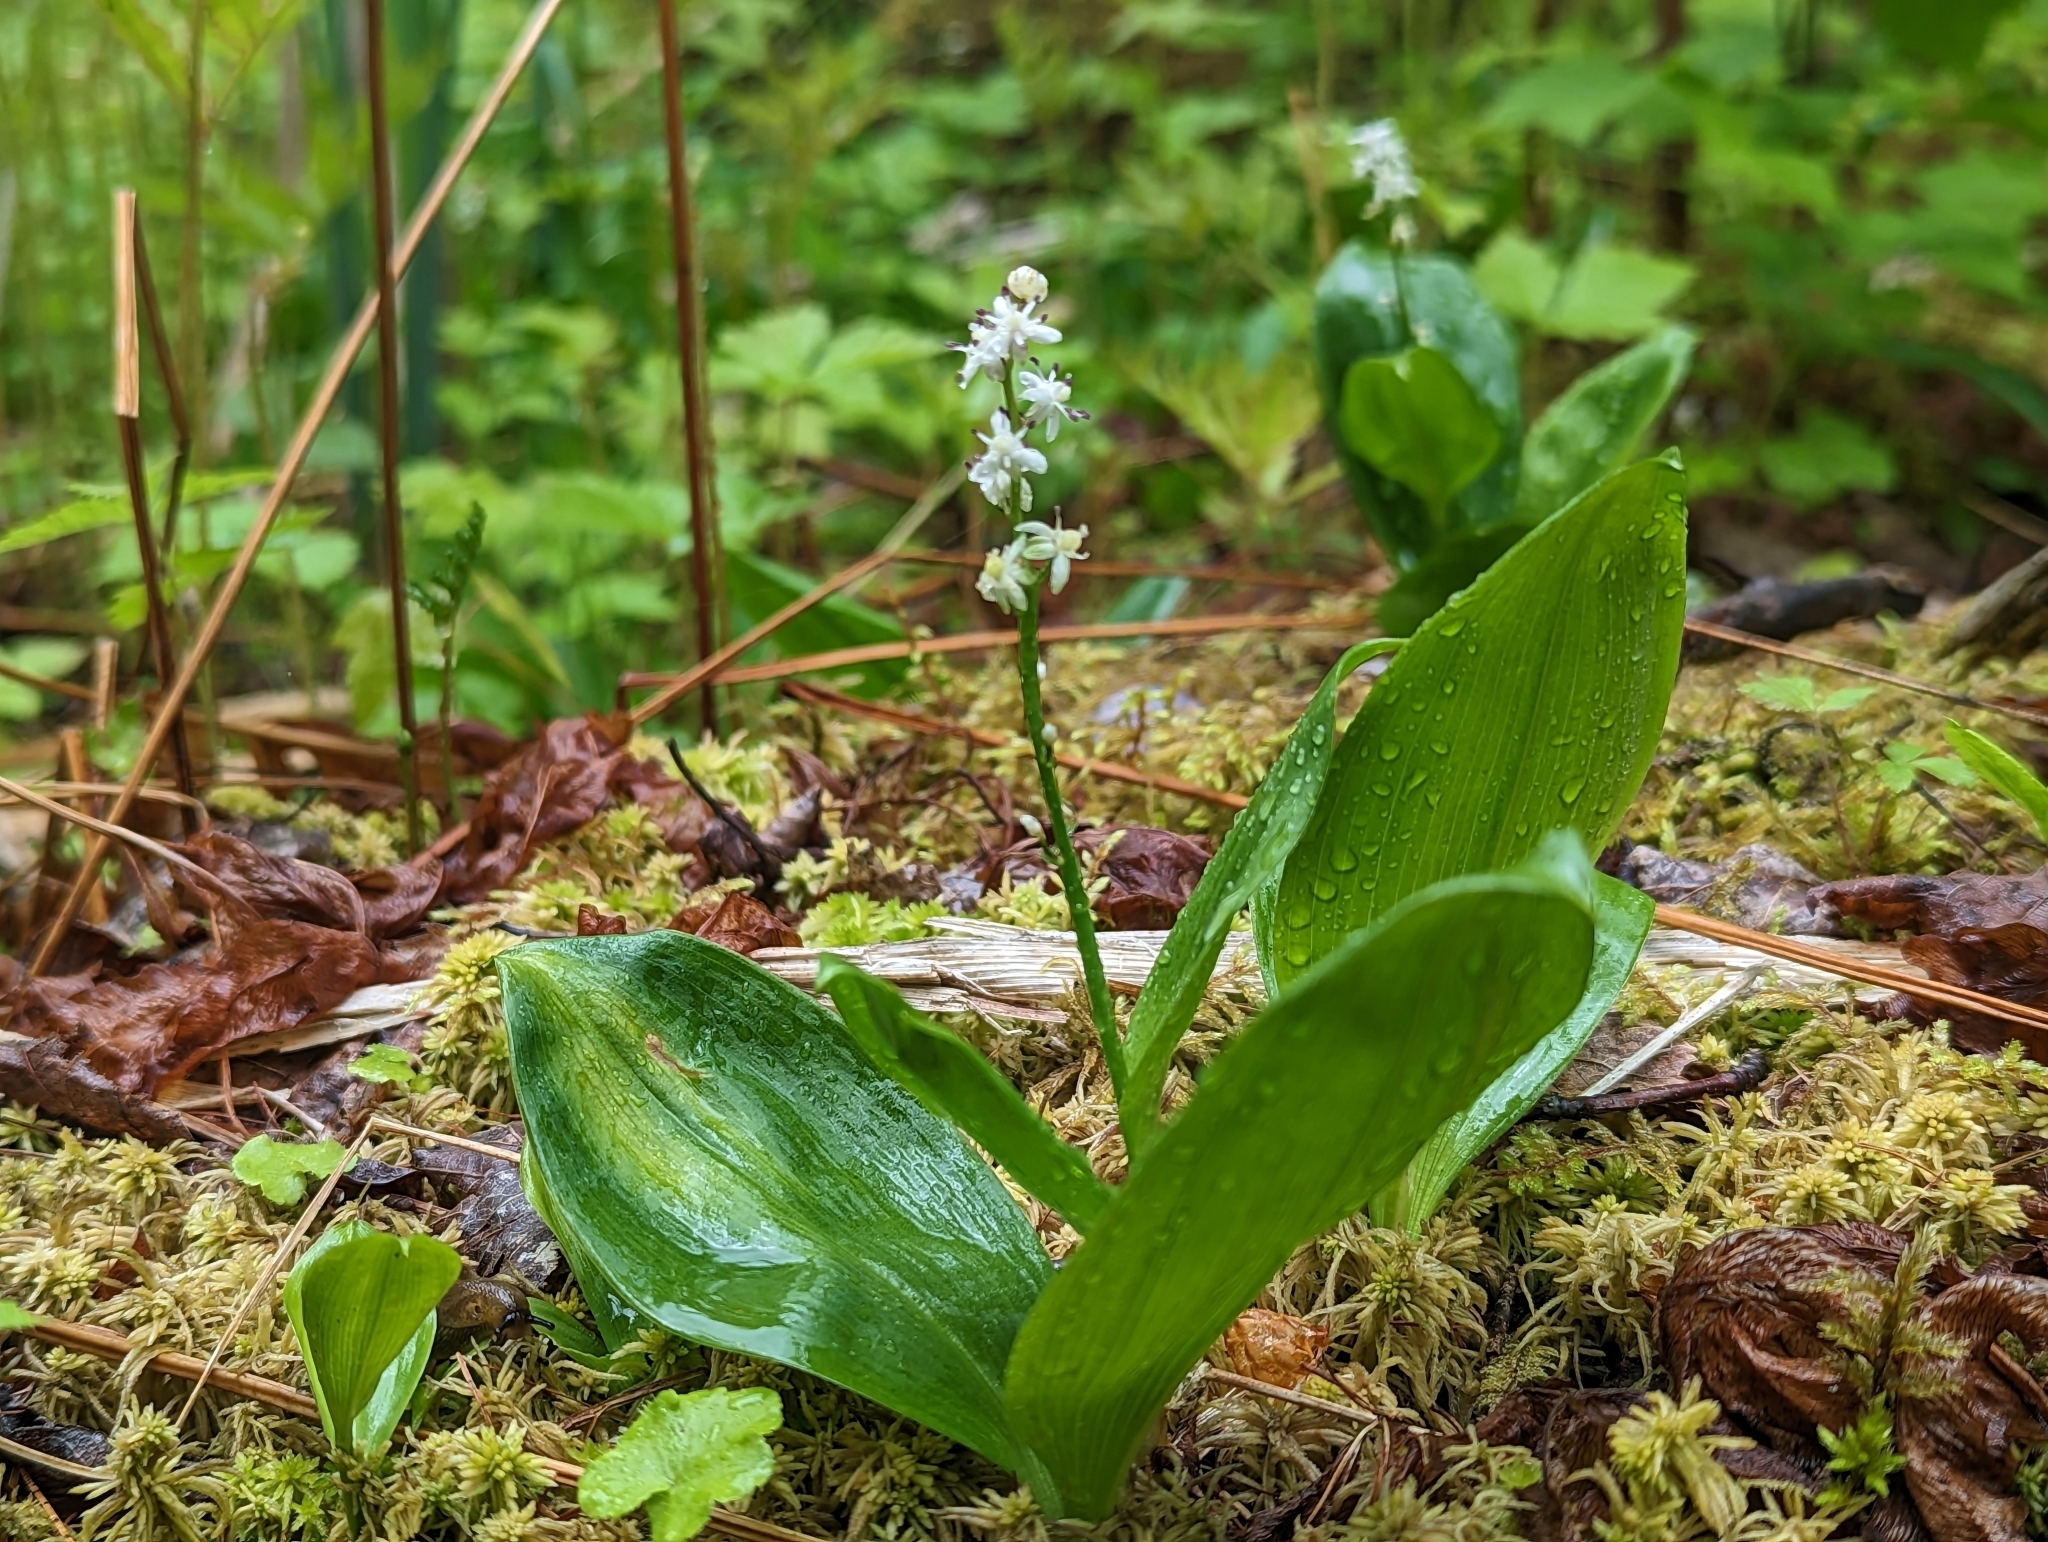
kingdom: Plantae
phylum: Tracheophyta
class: Liliopsida
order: Asparagales
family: Asparagaceae
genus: Maianthemum
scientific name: Maianthemum trifolium
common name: Swamp false solomon's seal
